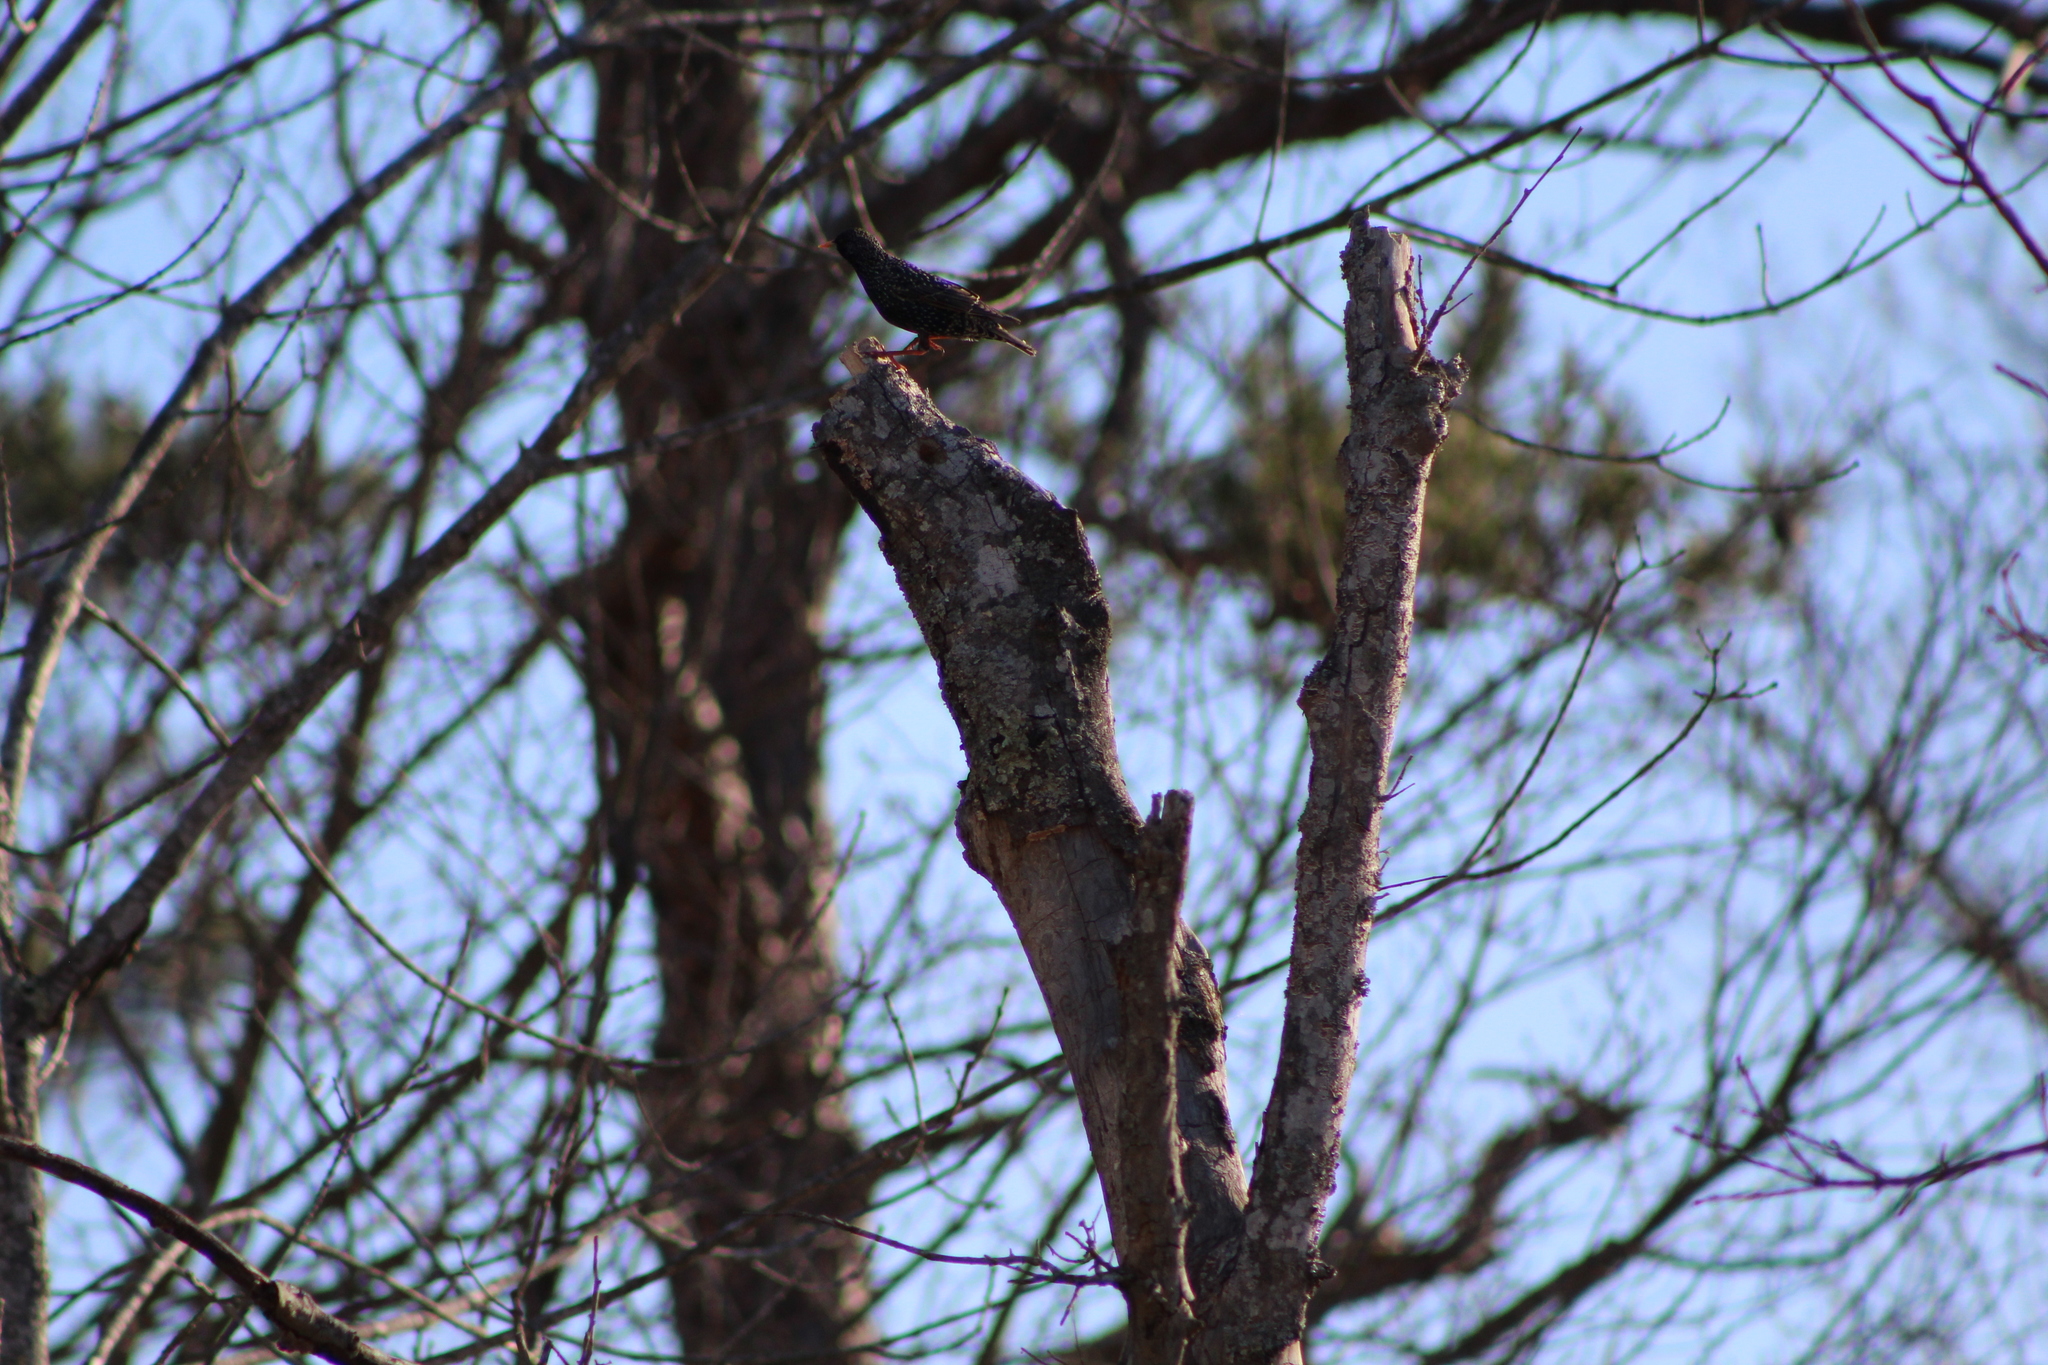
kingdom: Animalia
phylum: Chordata
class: Aves
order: Passeriformes
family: Sturnidae
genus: Sturnus
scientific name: Sturnus vulgaris
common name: Common starling
